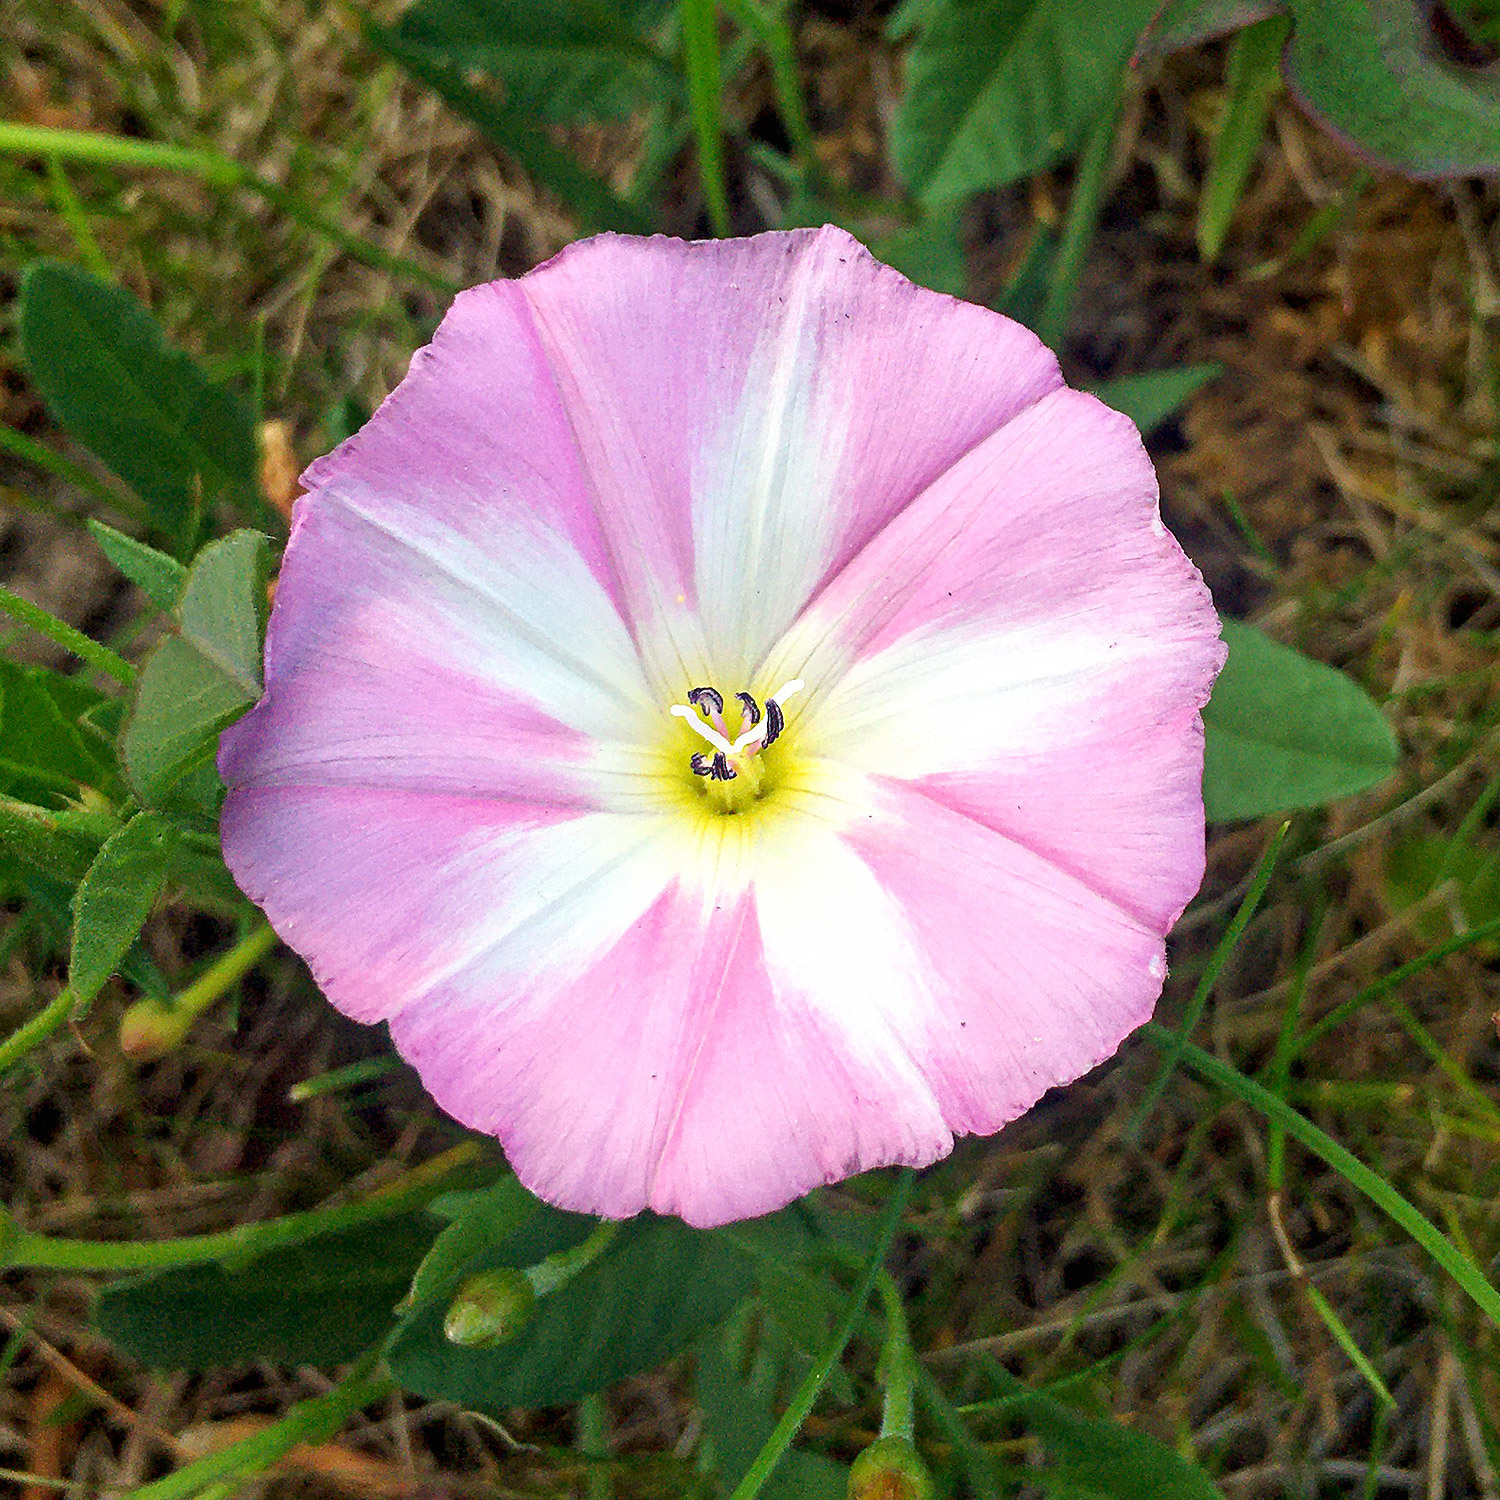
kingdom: Plantae
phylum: Tracheophyta
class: Magnoliopsida
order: Solanales
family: Convolvulaceae
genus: Convolvulus
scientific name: Convolvulus arvensis
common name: Field bindweed
